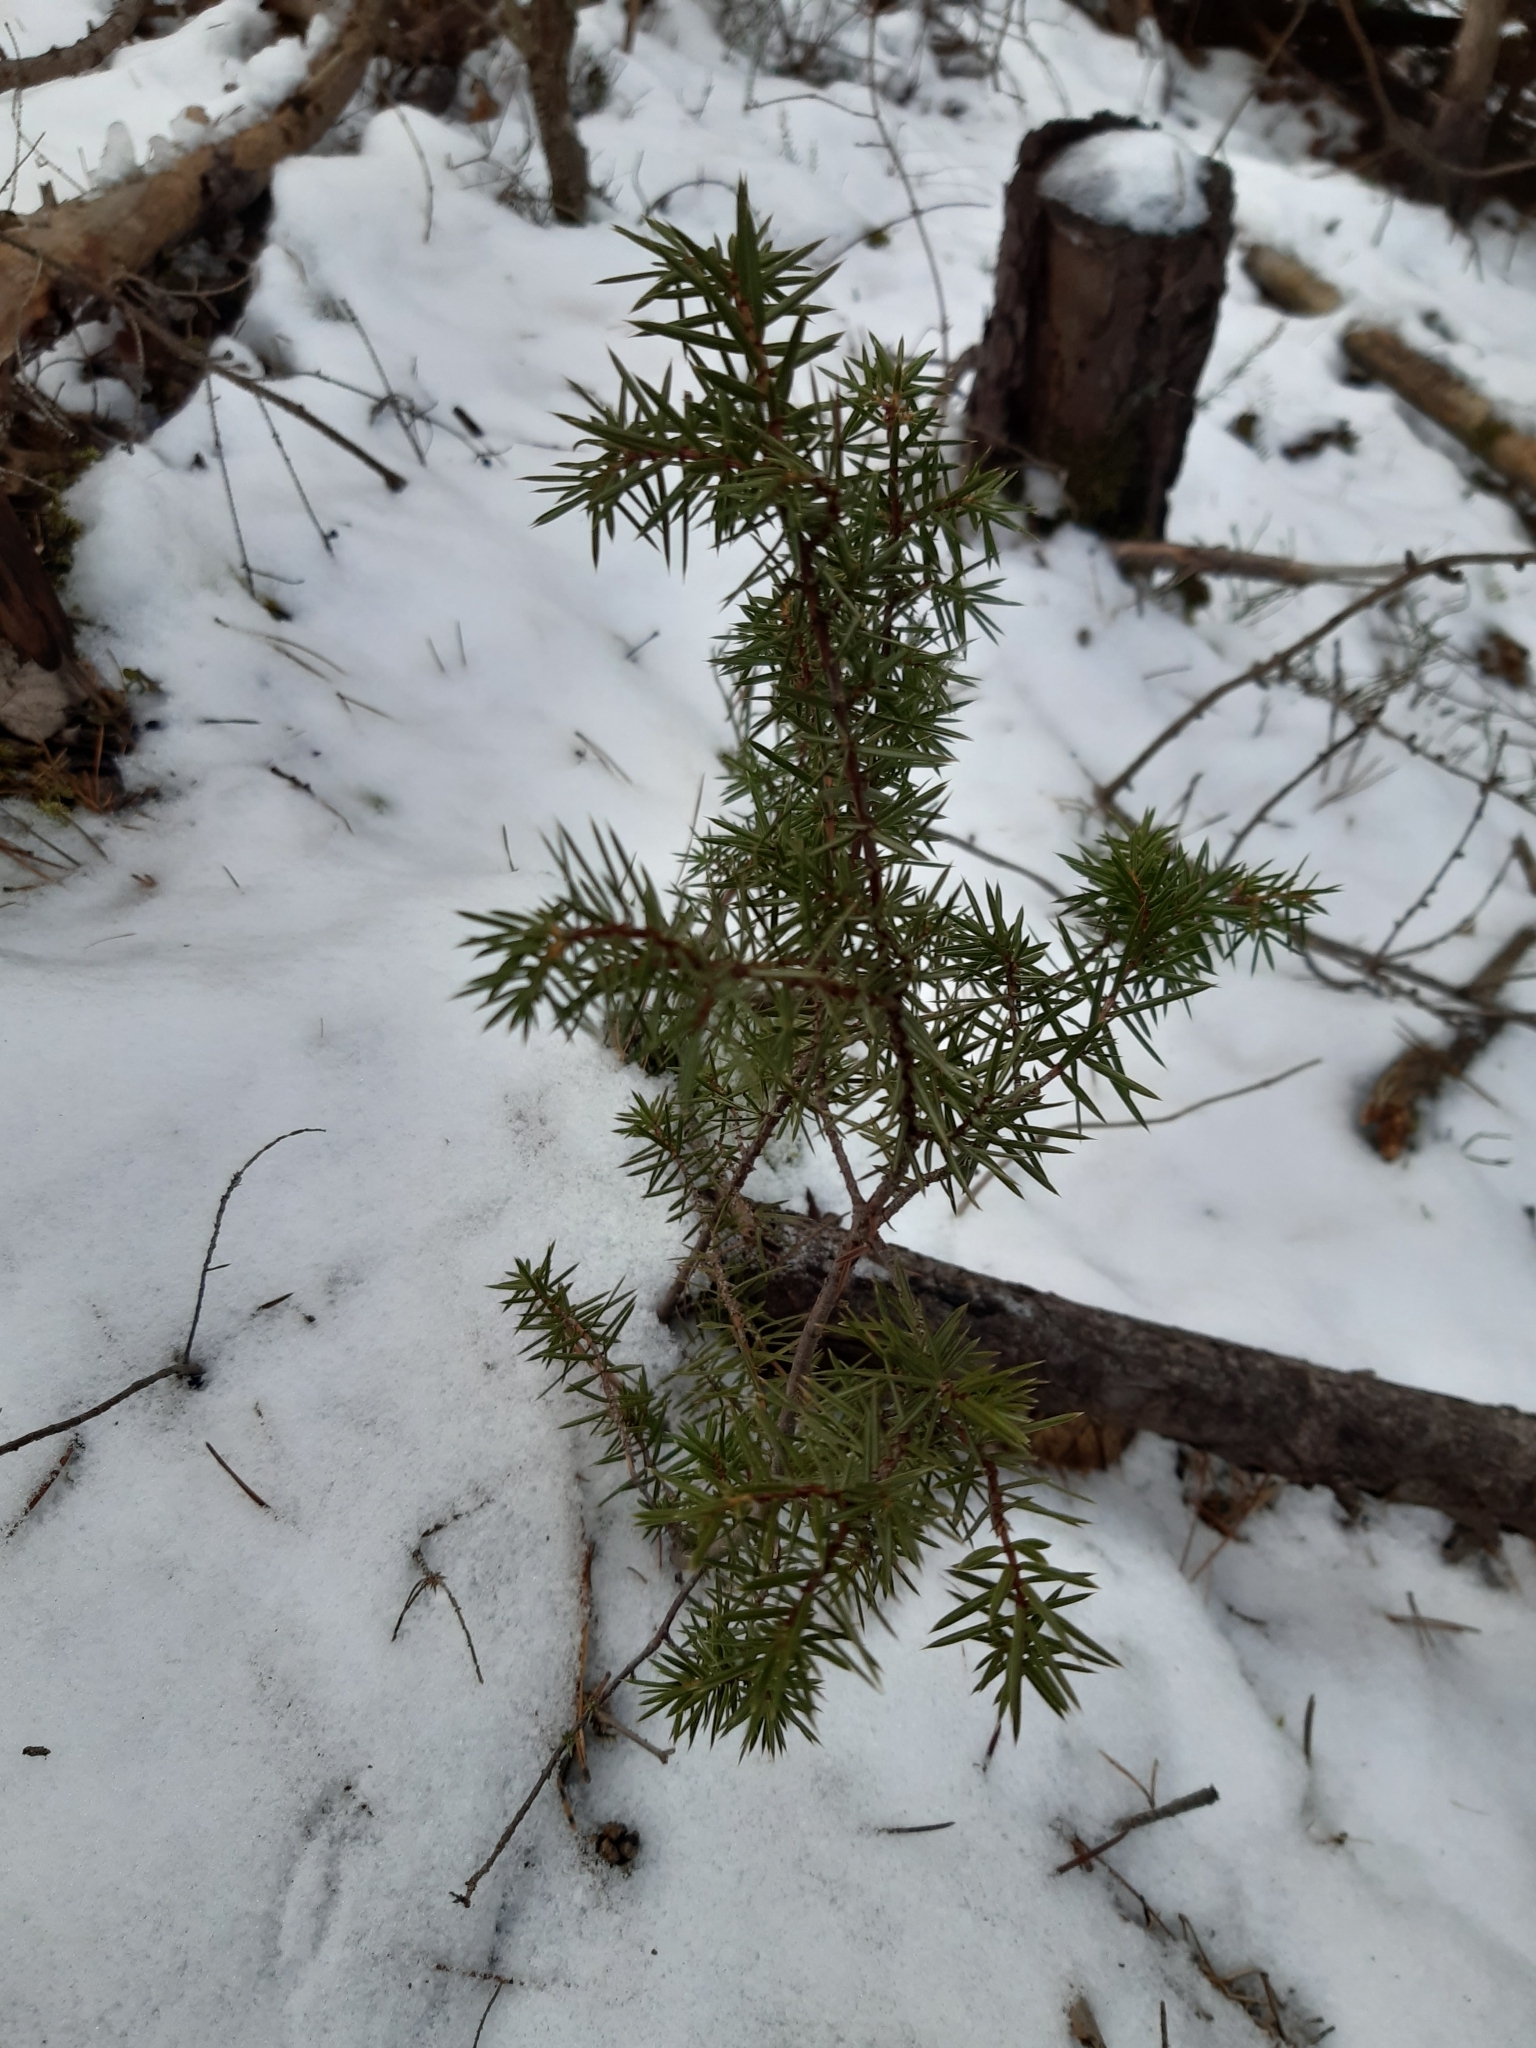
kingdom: Plantae
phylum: Tracheophyta
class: Pinopsida
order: Pinales
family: Cupressaceae
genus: Juniperus
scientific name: Juniperus communis
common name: Common juniper
